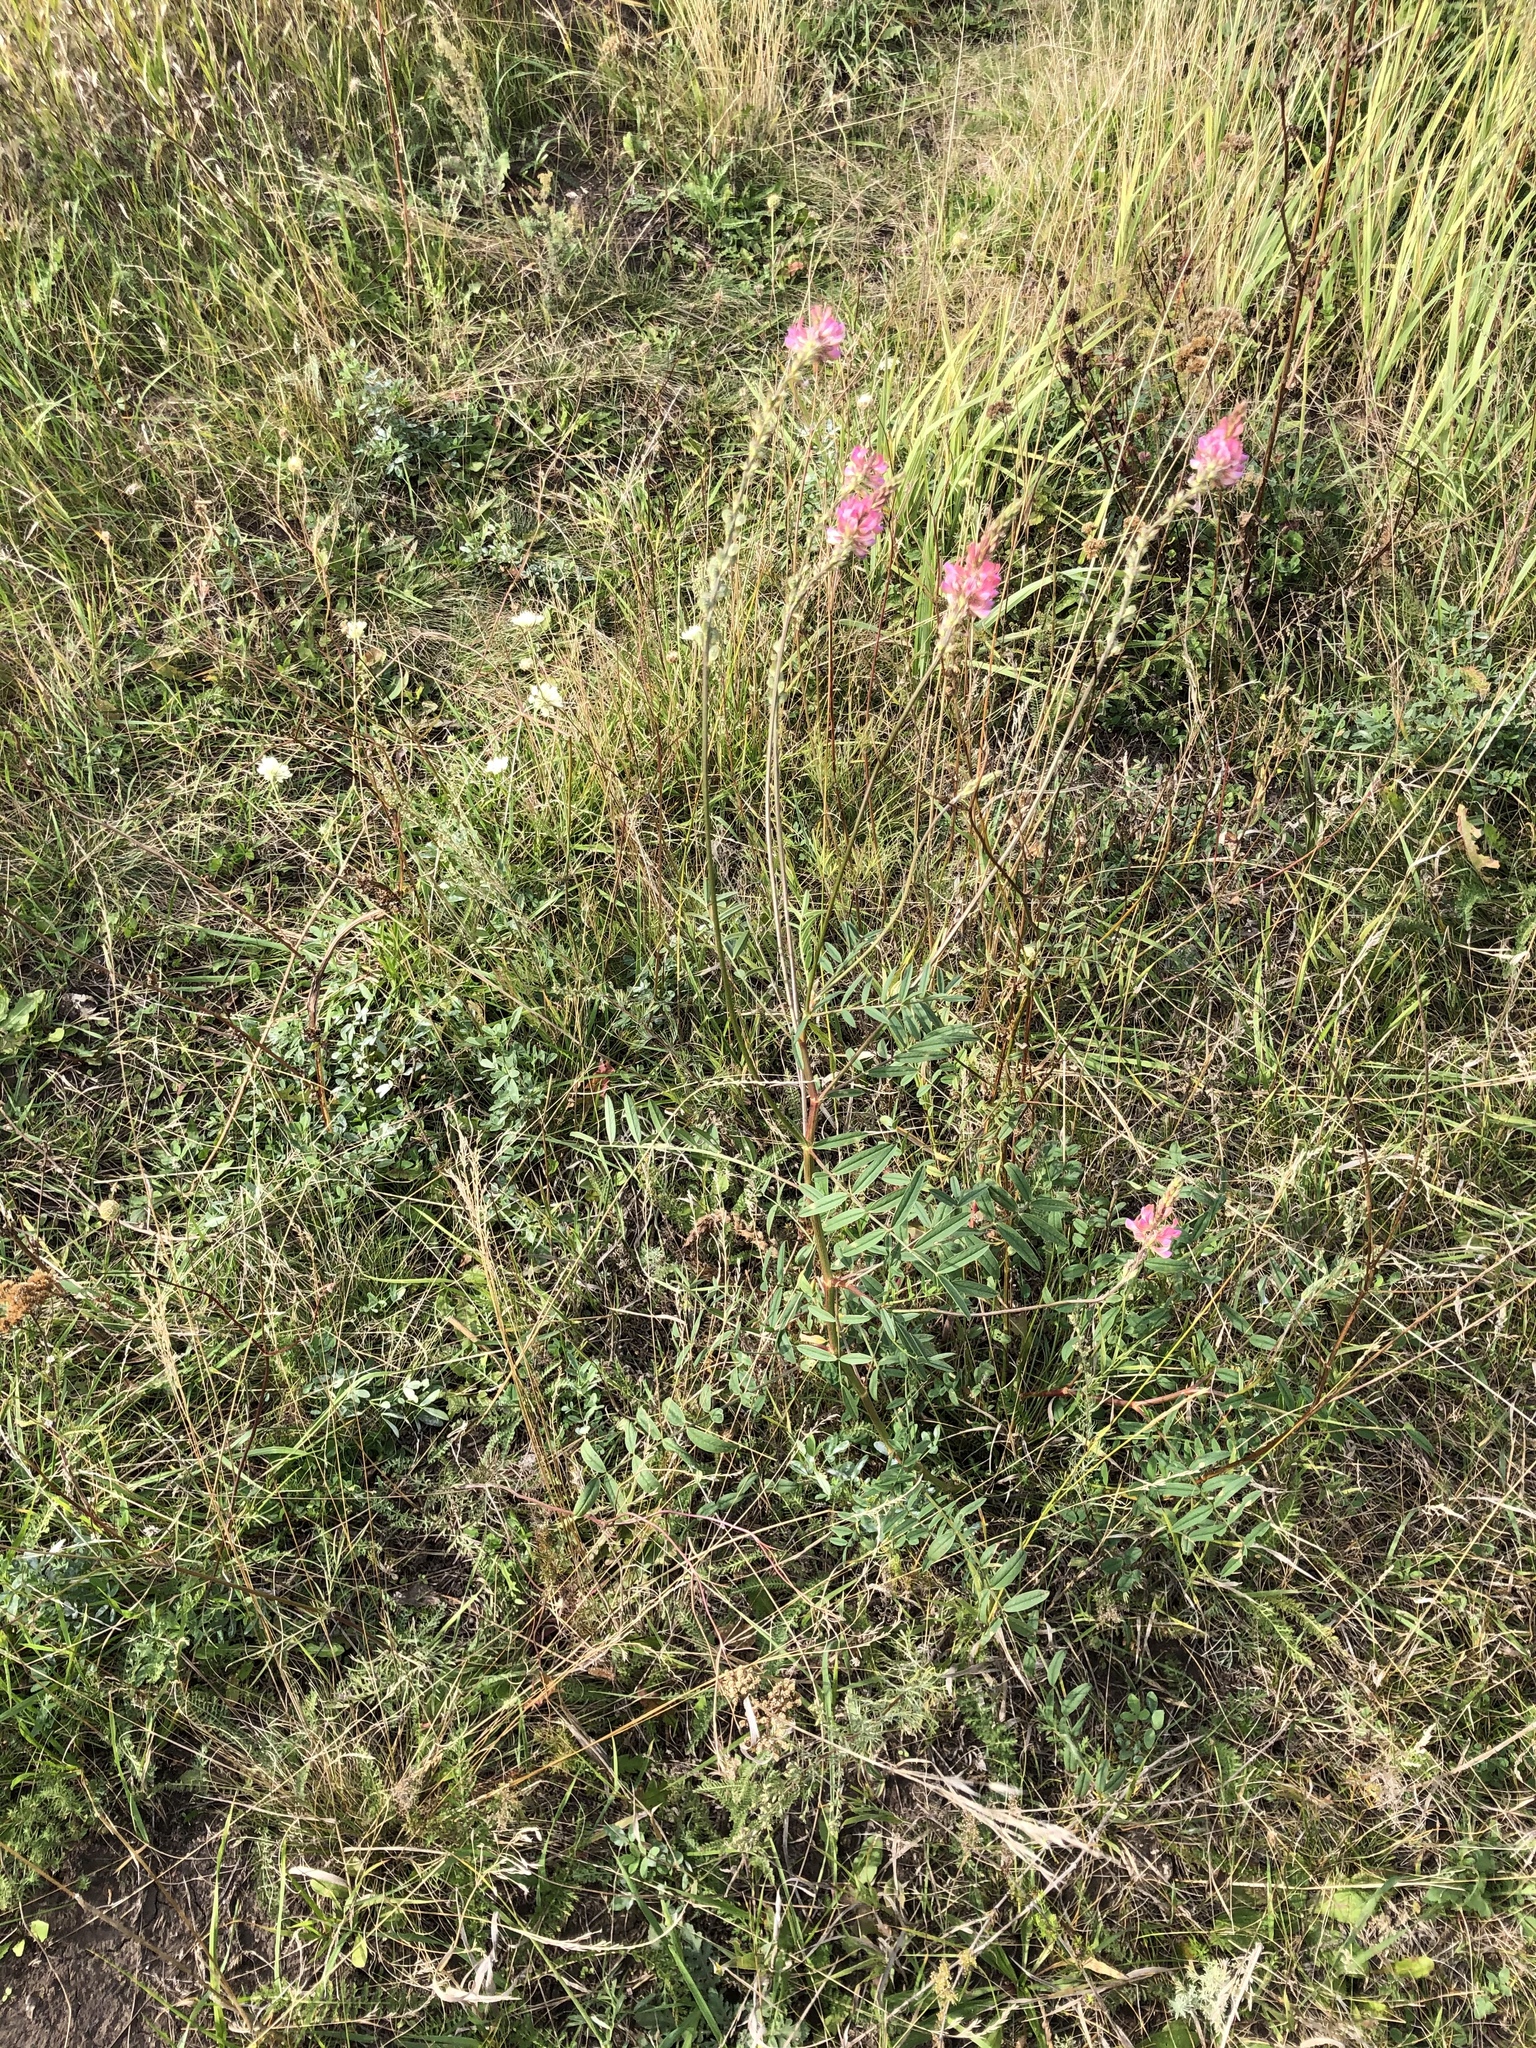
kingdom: Plantae
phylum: Tracheophyta
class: Magnoliopsida
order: Fabales
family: Fabaceae
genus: Onobrychis
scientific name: Onobrychis viciifolia
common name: Sainfoin
